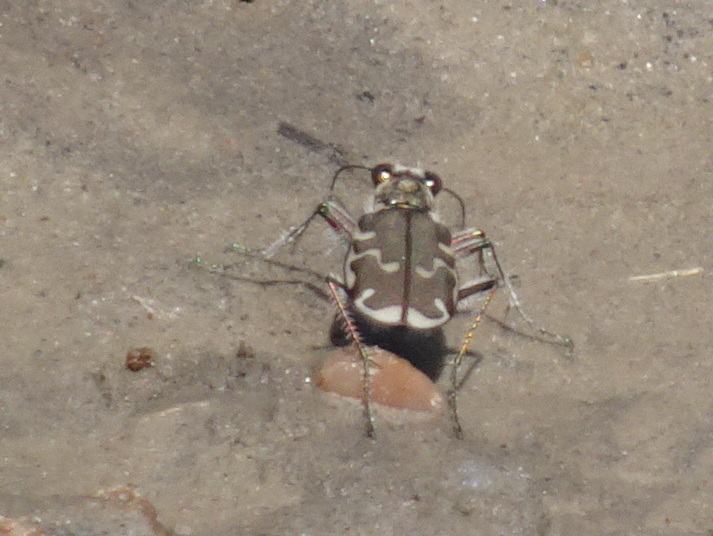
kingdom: Animalia
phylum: Arthropoda
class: Insecta
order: Coleoptera
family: Carabidae
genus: Cicindela
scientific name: Cicindela repanda
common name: Bronzed tiger beetle
